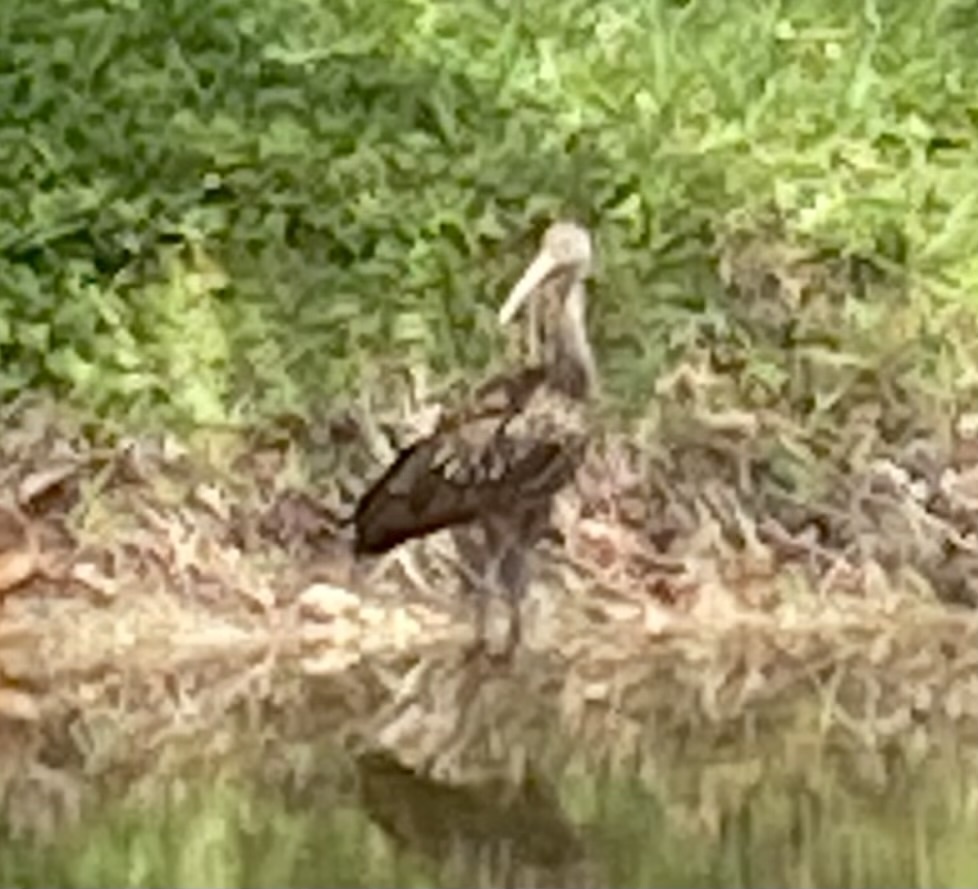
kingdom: Animalia
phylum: Chordata
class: Aves
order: Gruiformes
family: Aramidae
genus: Aramus
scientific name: Aramus guarauna
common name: Limpkin
